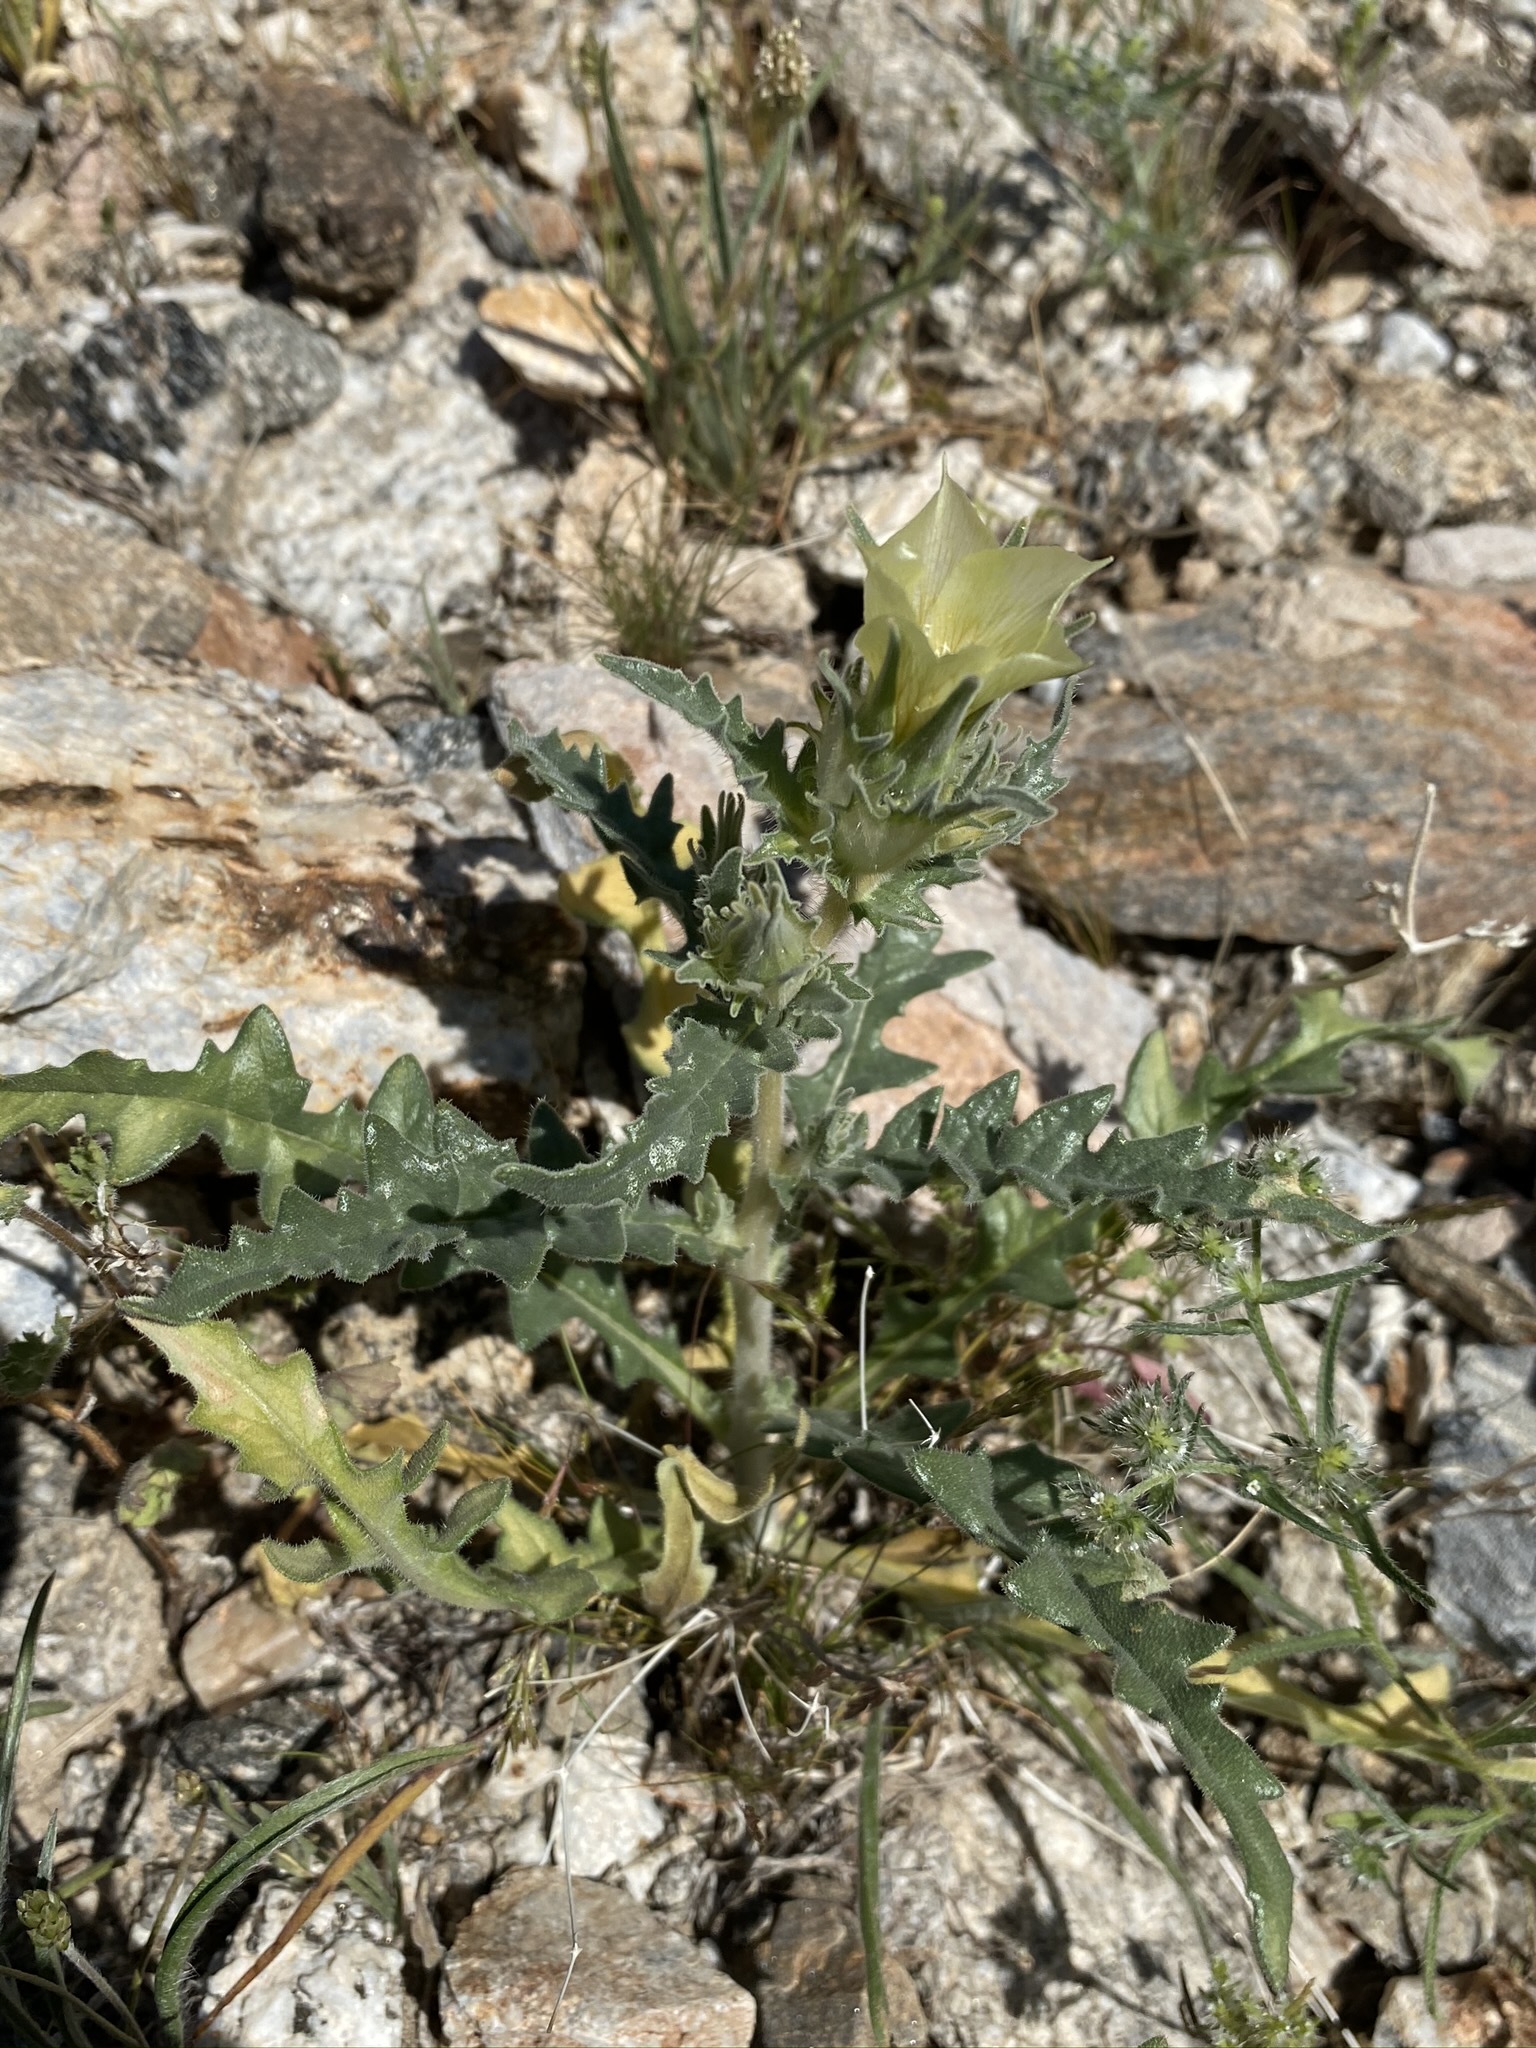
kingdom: Plantae
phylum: Tracheophyta
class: Magnoliopsida
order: Cornales
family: Loasaceae
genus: Mentzelia
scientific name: Mentzelia involucrata
